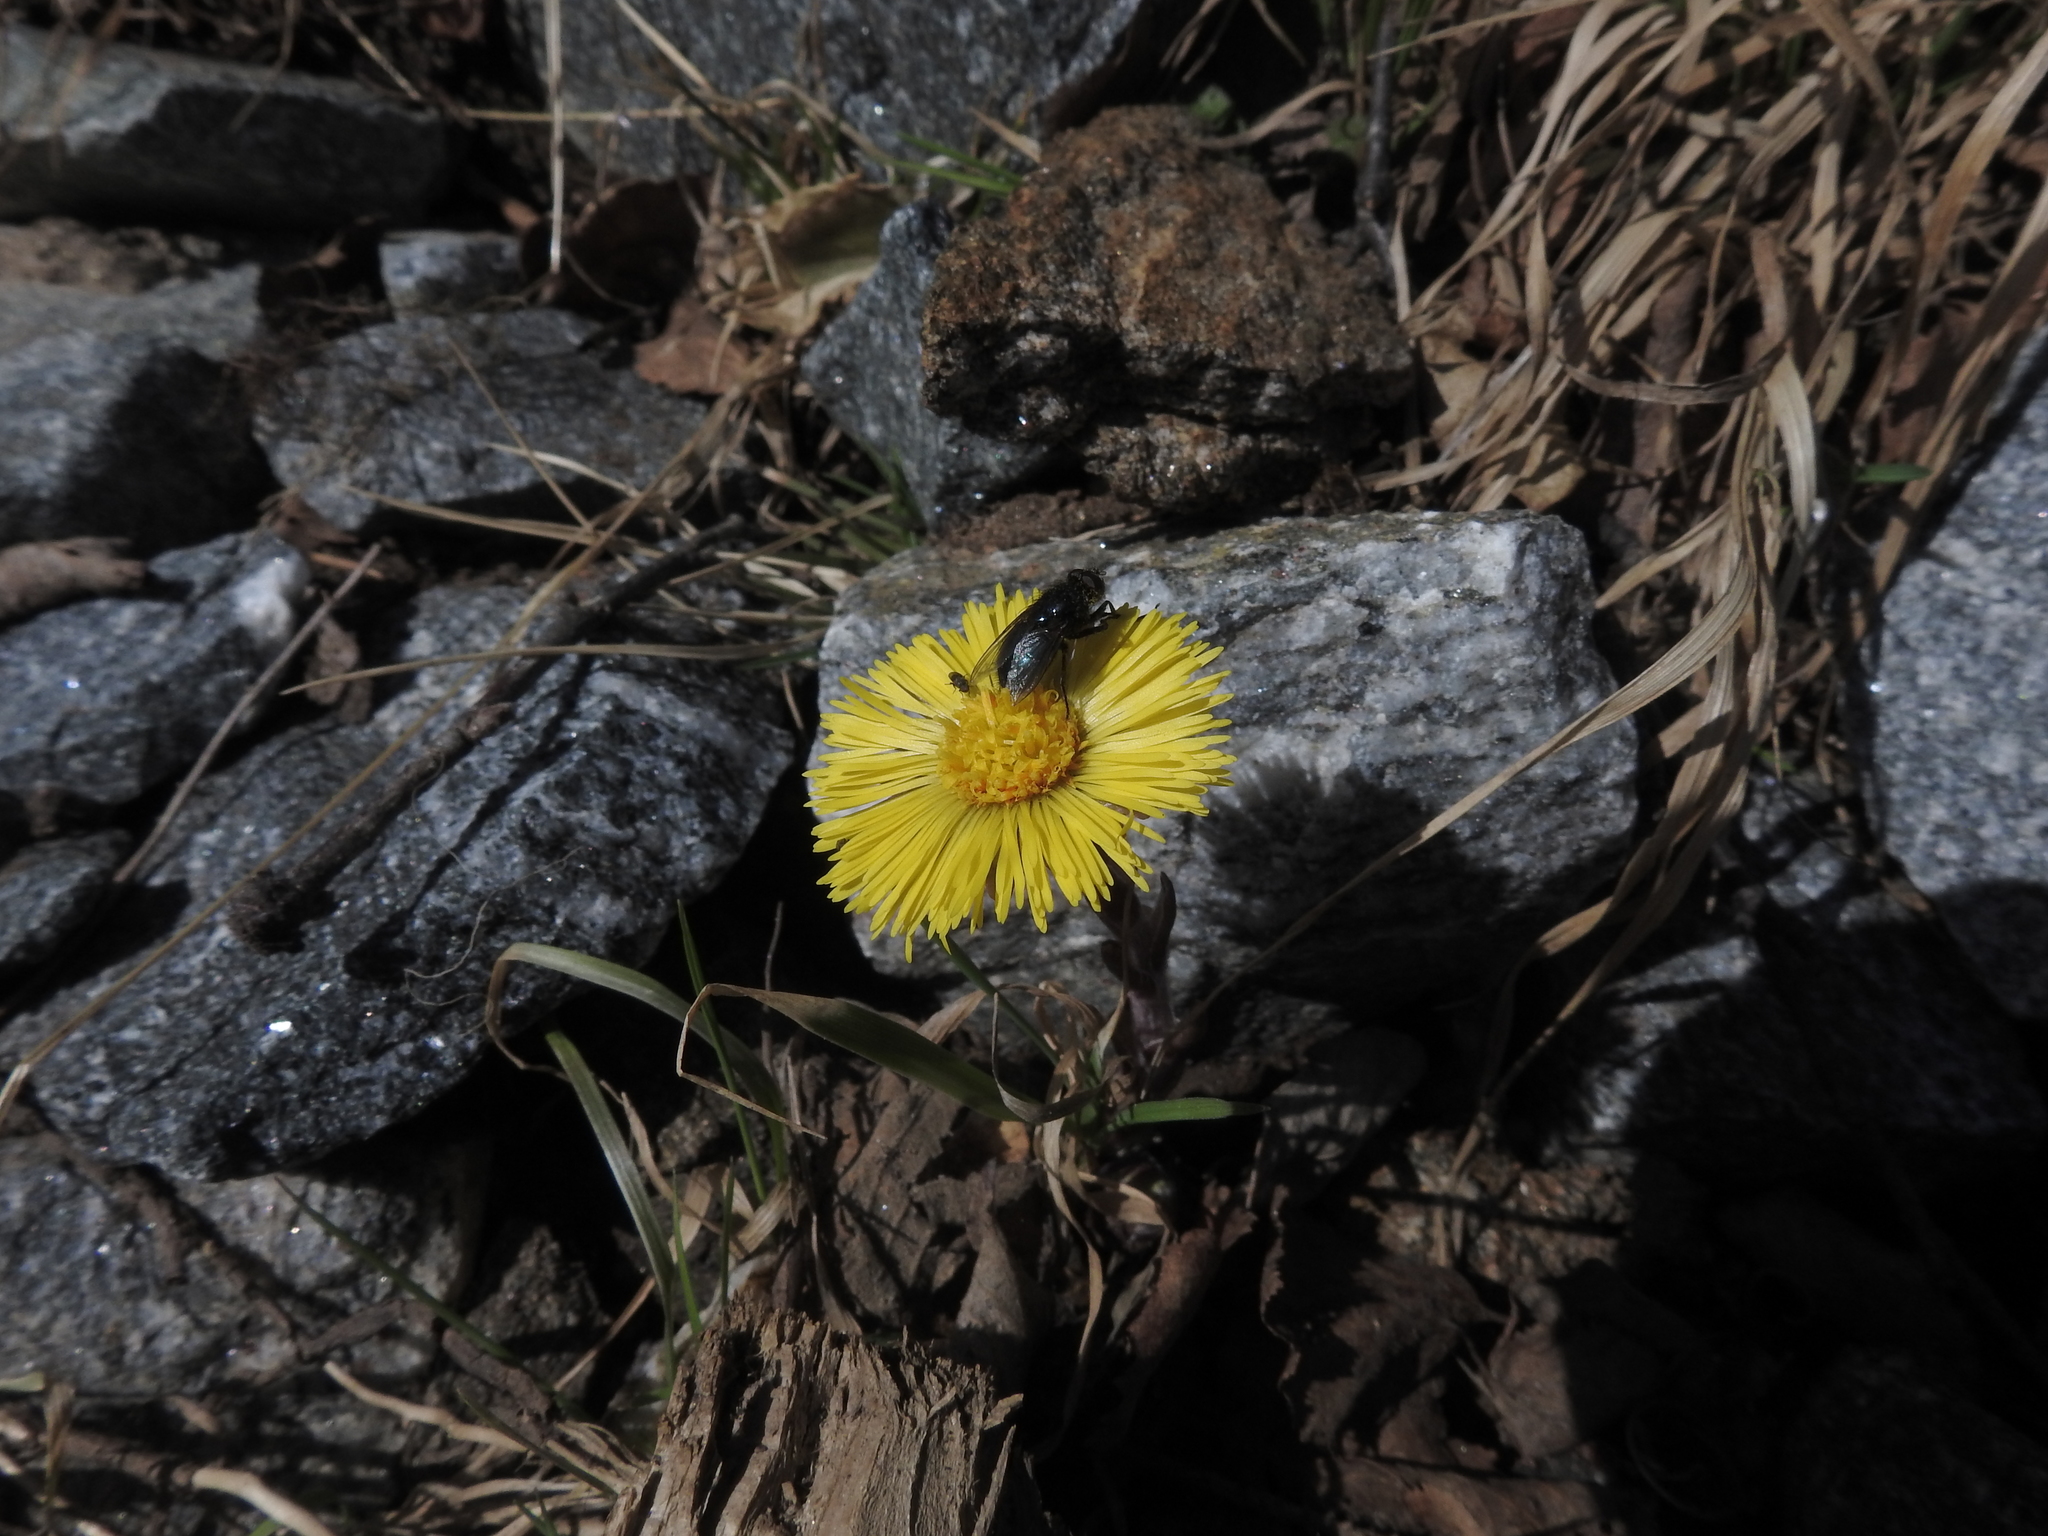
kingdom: Plantae
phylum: Tracheophyta
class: Magnoliopsida
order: Asterales
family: Asteraceae
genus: Tussilago
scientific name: Tussilago farfara
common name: Coltsfoot
